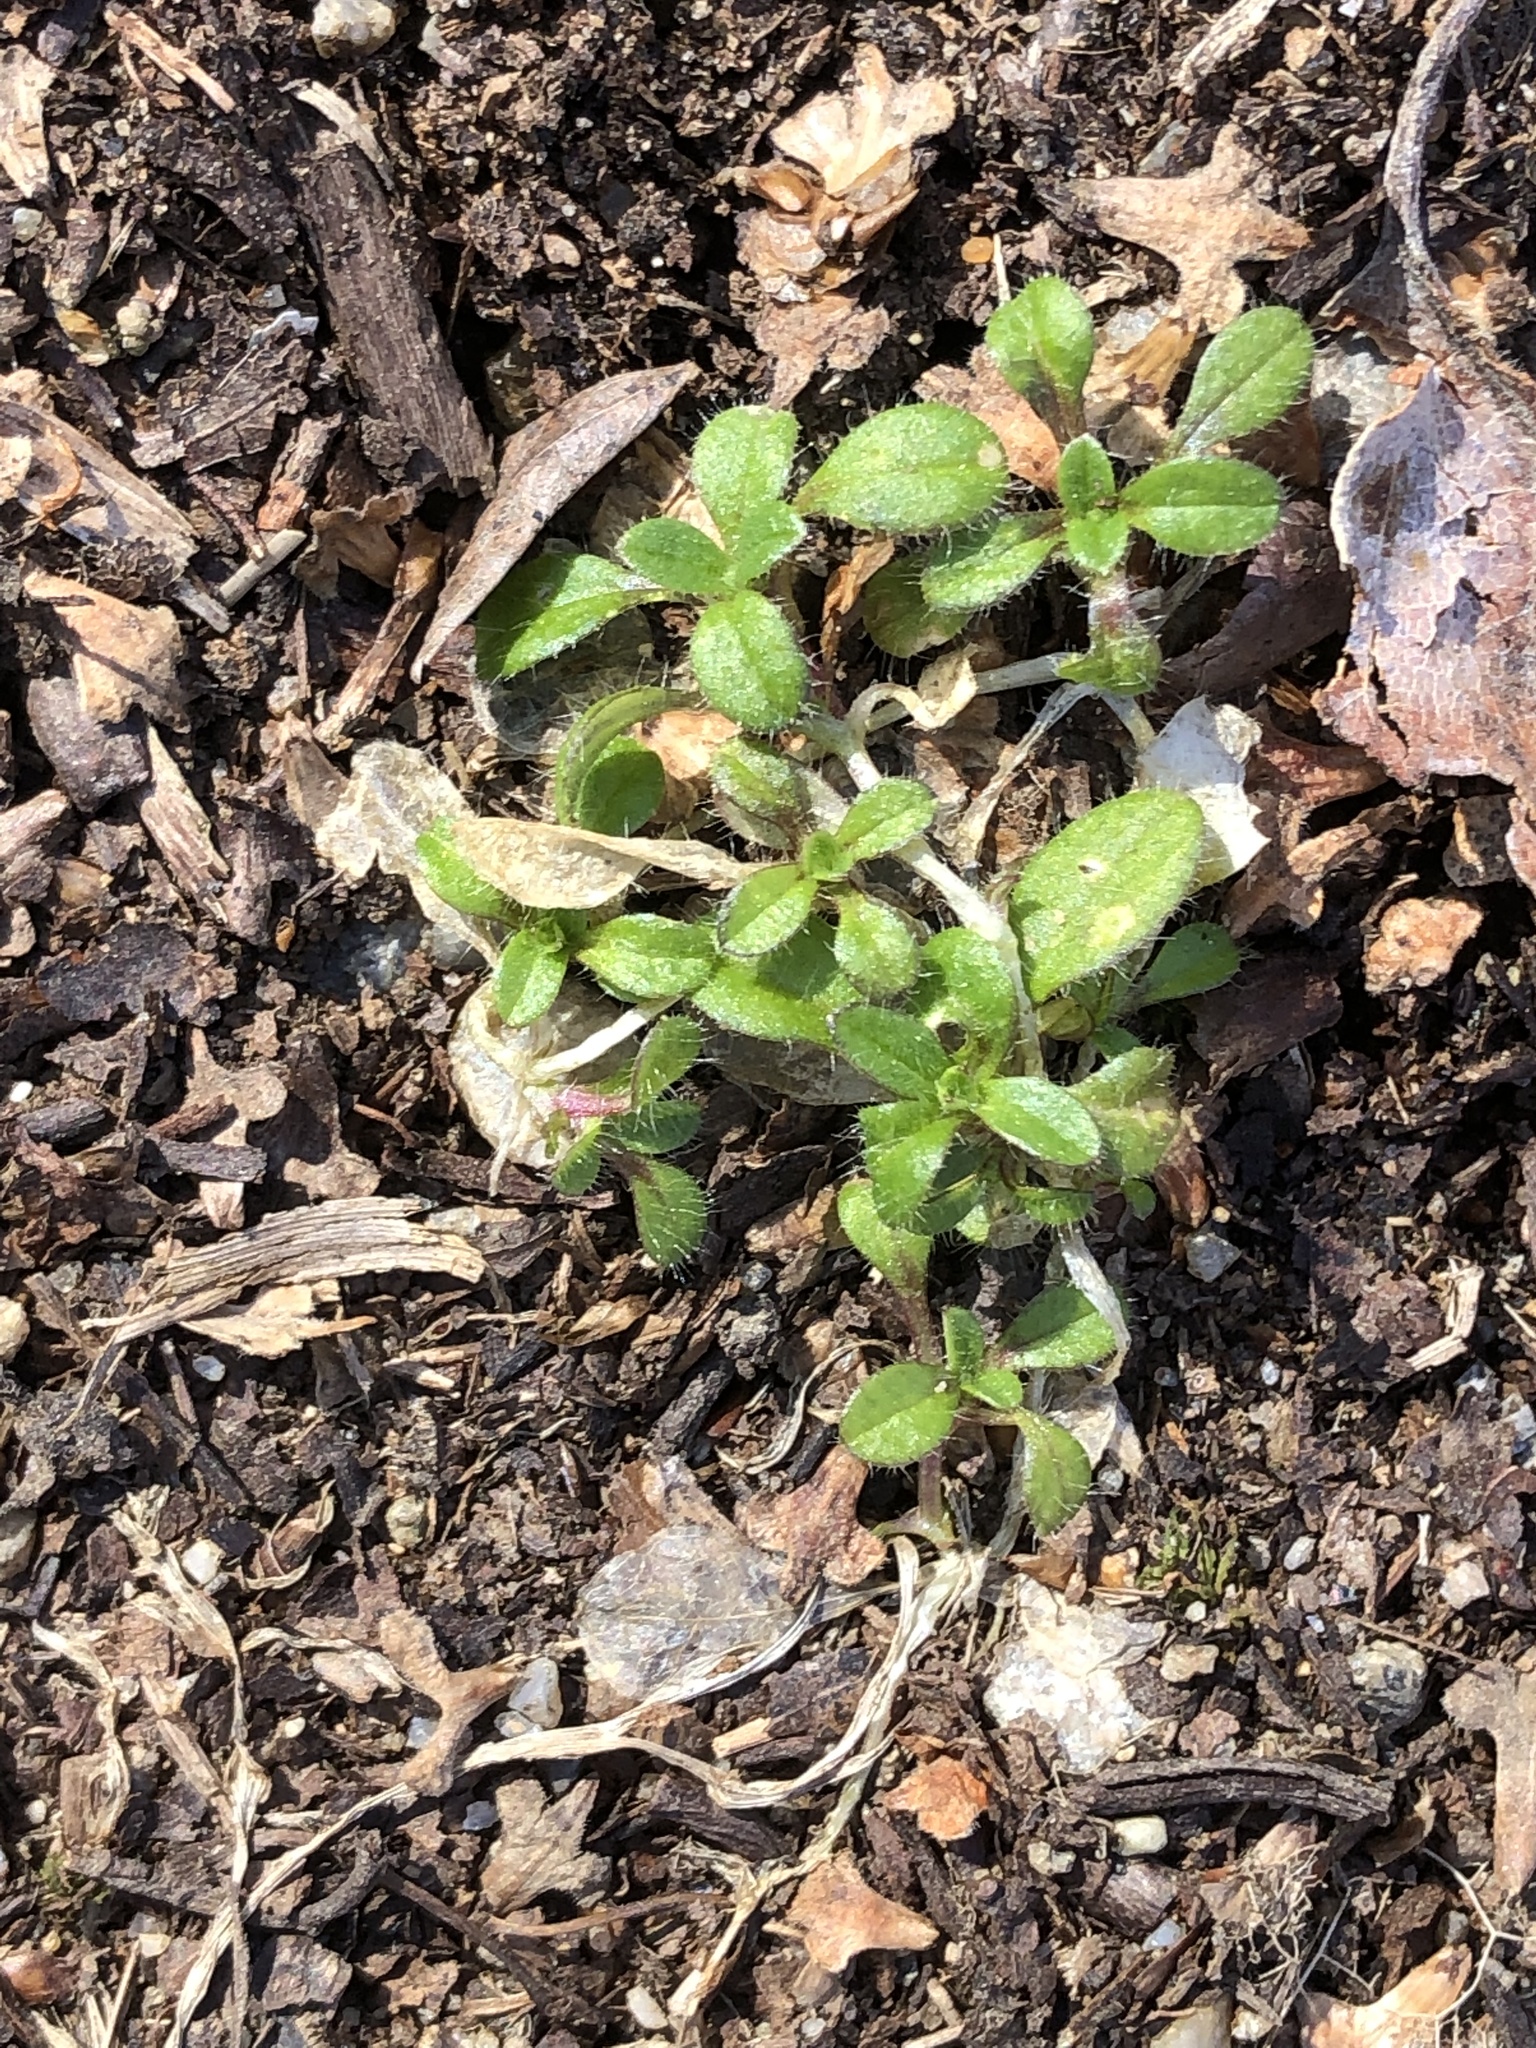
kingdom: Plantae
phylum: Tracheophyta
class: Magnoliopsida
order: Caryophyllales
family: Caryophyllaceae
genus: Cerastium
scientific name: Cerastium fontanum
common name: Common mouse-ear
